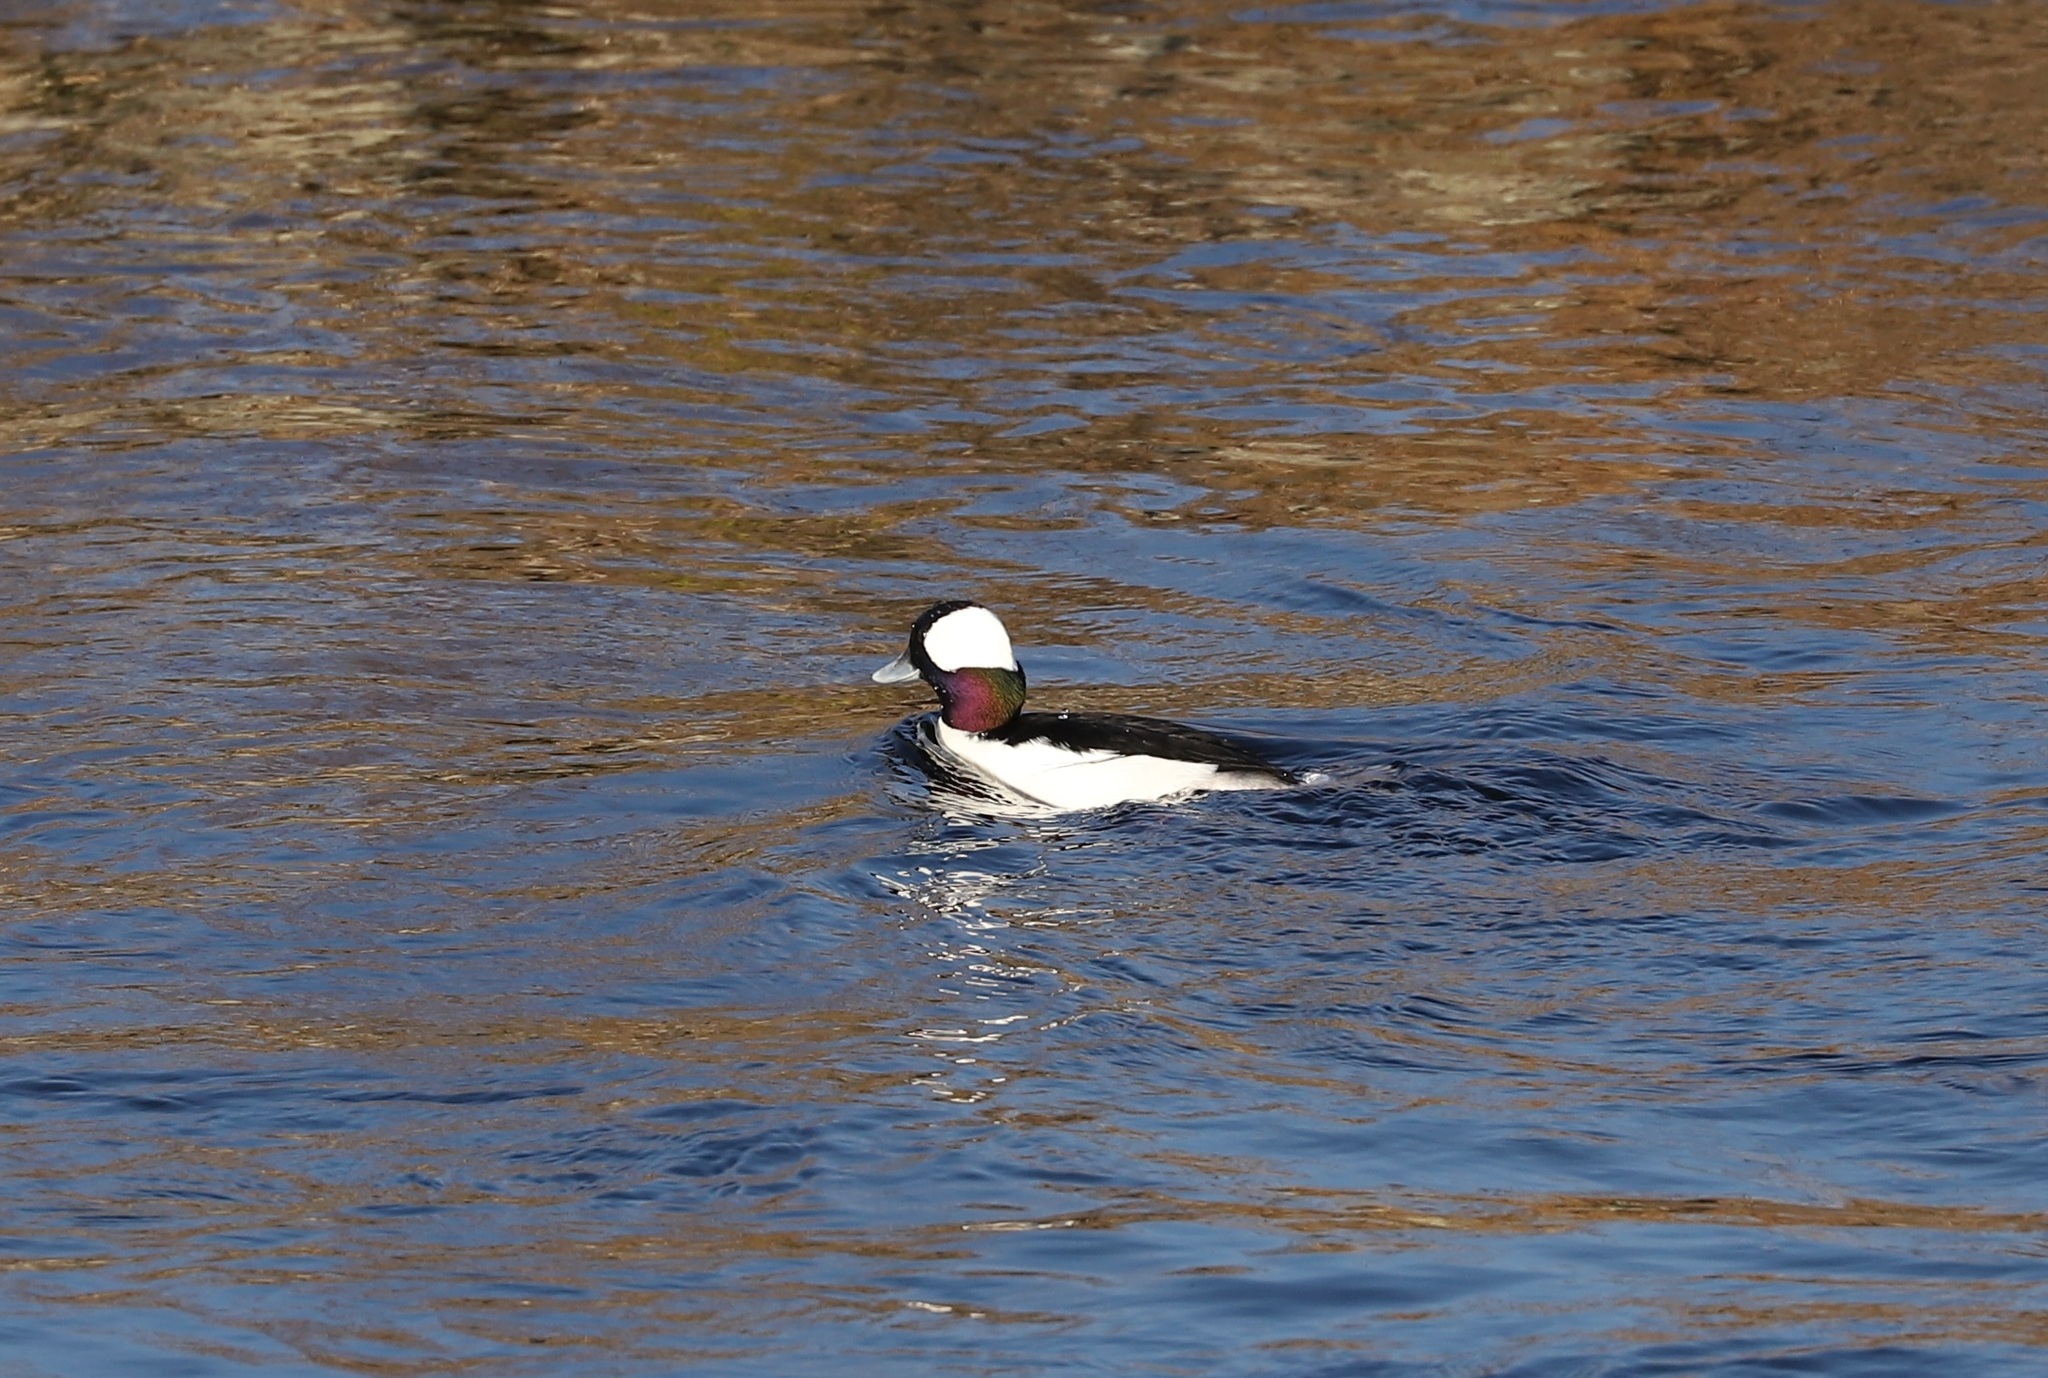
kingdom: Animalia
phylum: Chordata
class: Aves
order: Anseriformes
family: Anatidae
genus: Bucephala
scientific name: Bucephala albeola
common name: Bufflehead
